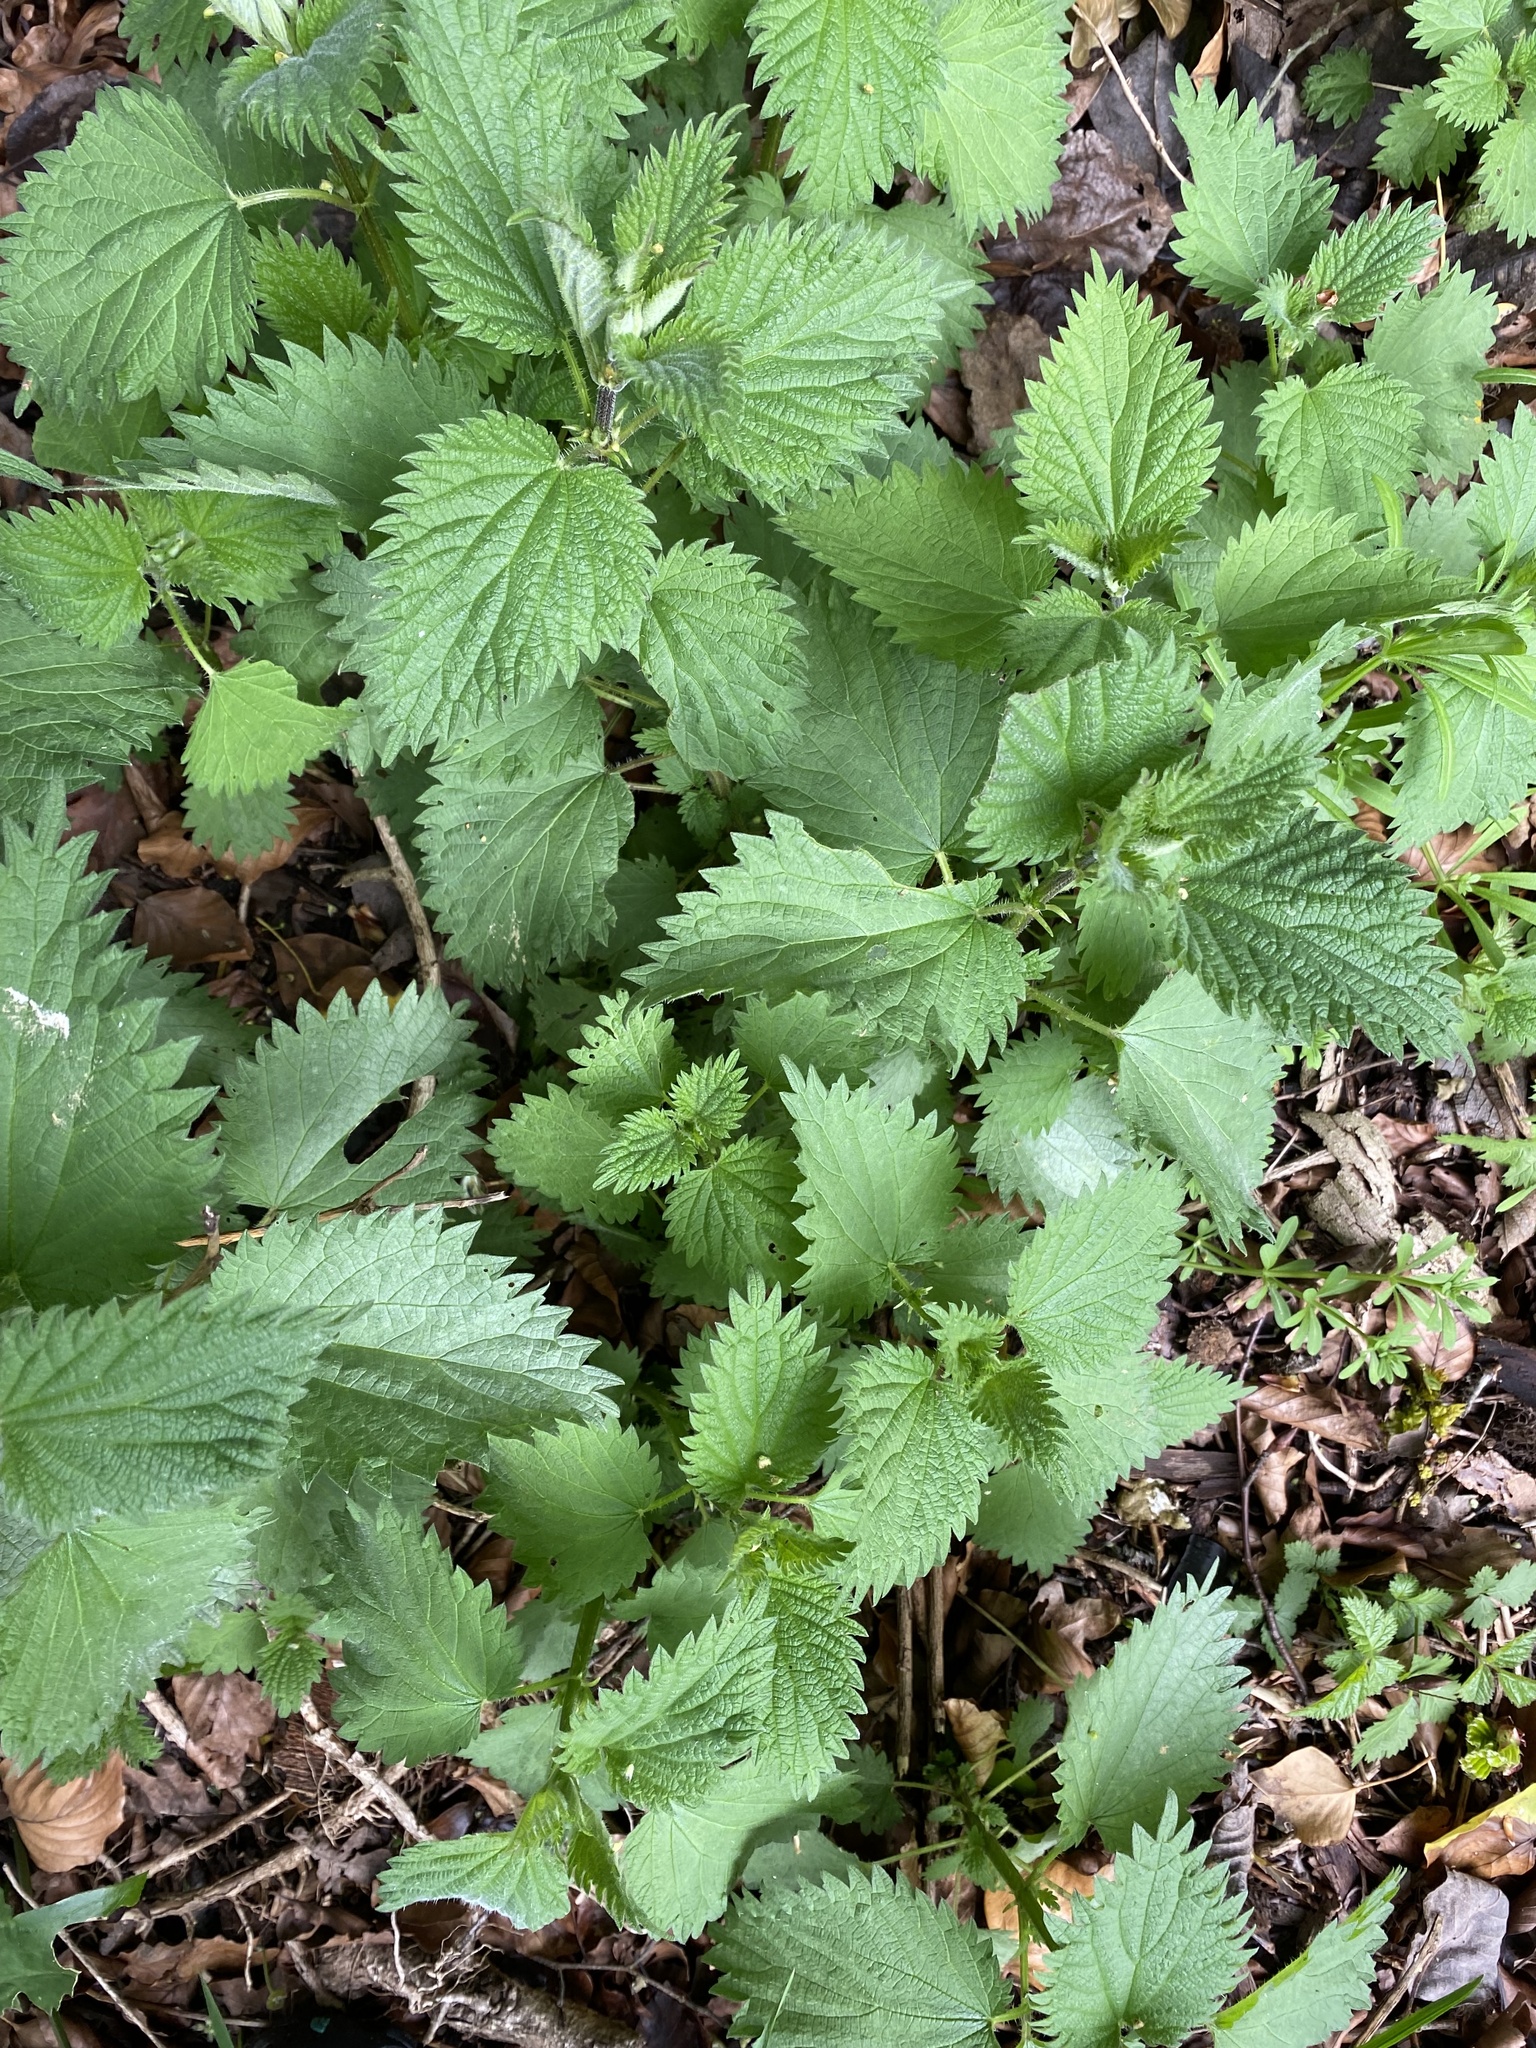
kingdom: Plantae
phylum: Tracheophyta
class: Magnoliopsida
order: Rosales
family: Urticaceae
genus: Urtica
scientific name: Urtica dioica
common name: Common nettle
